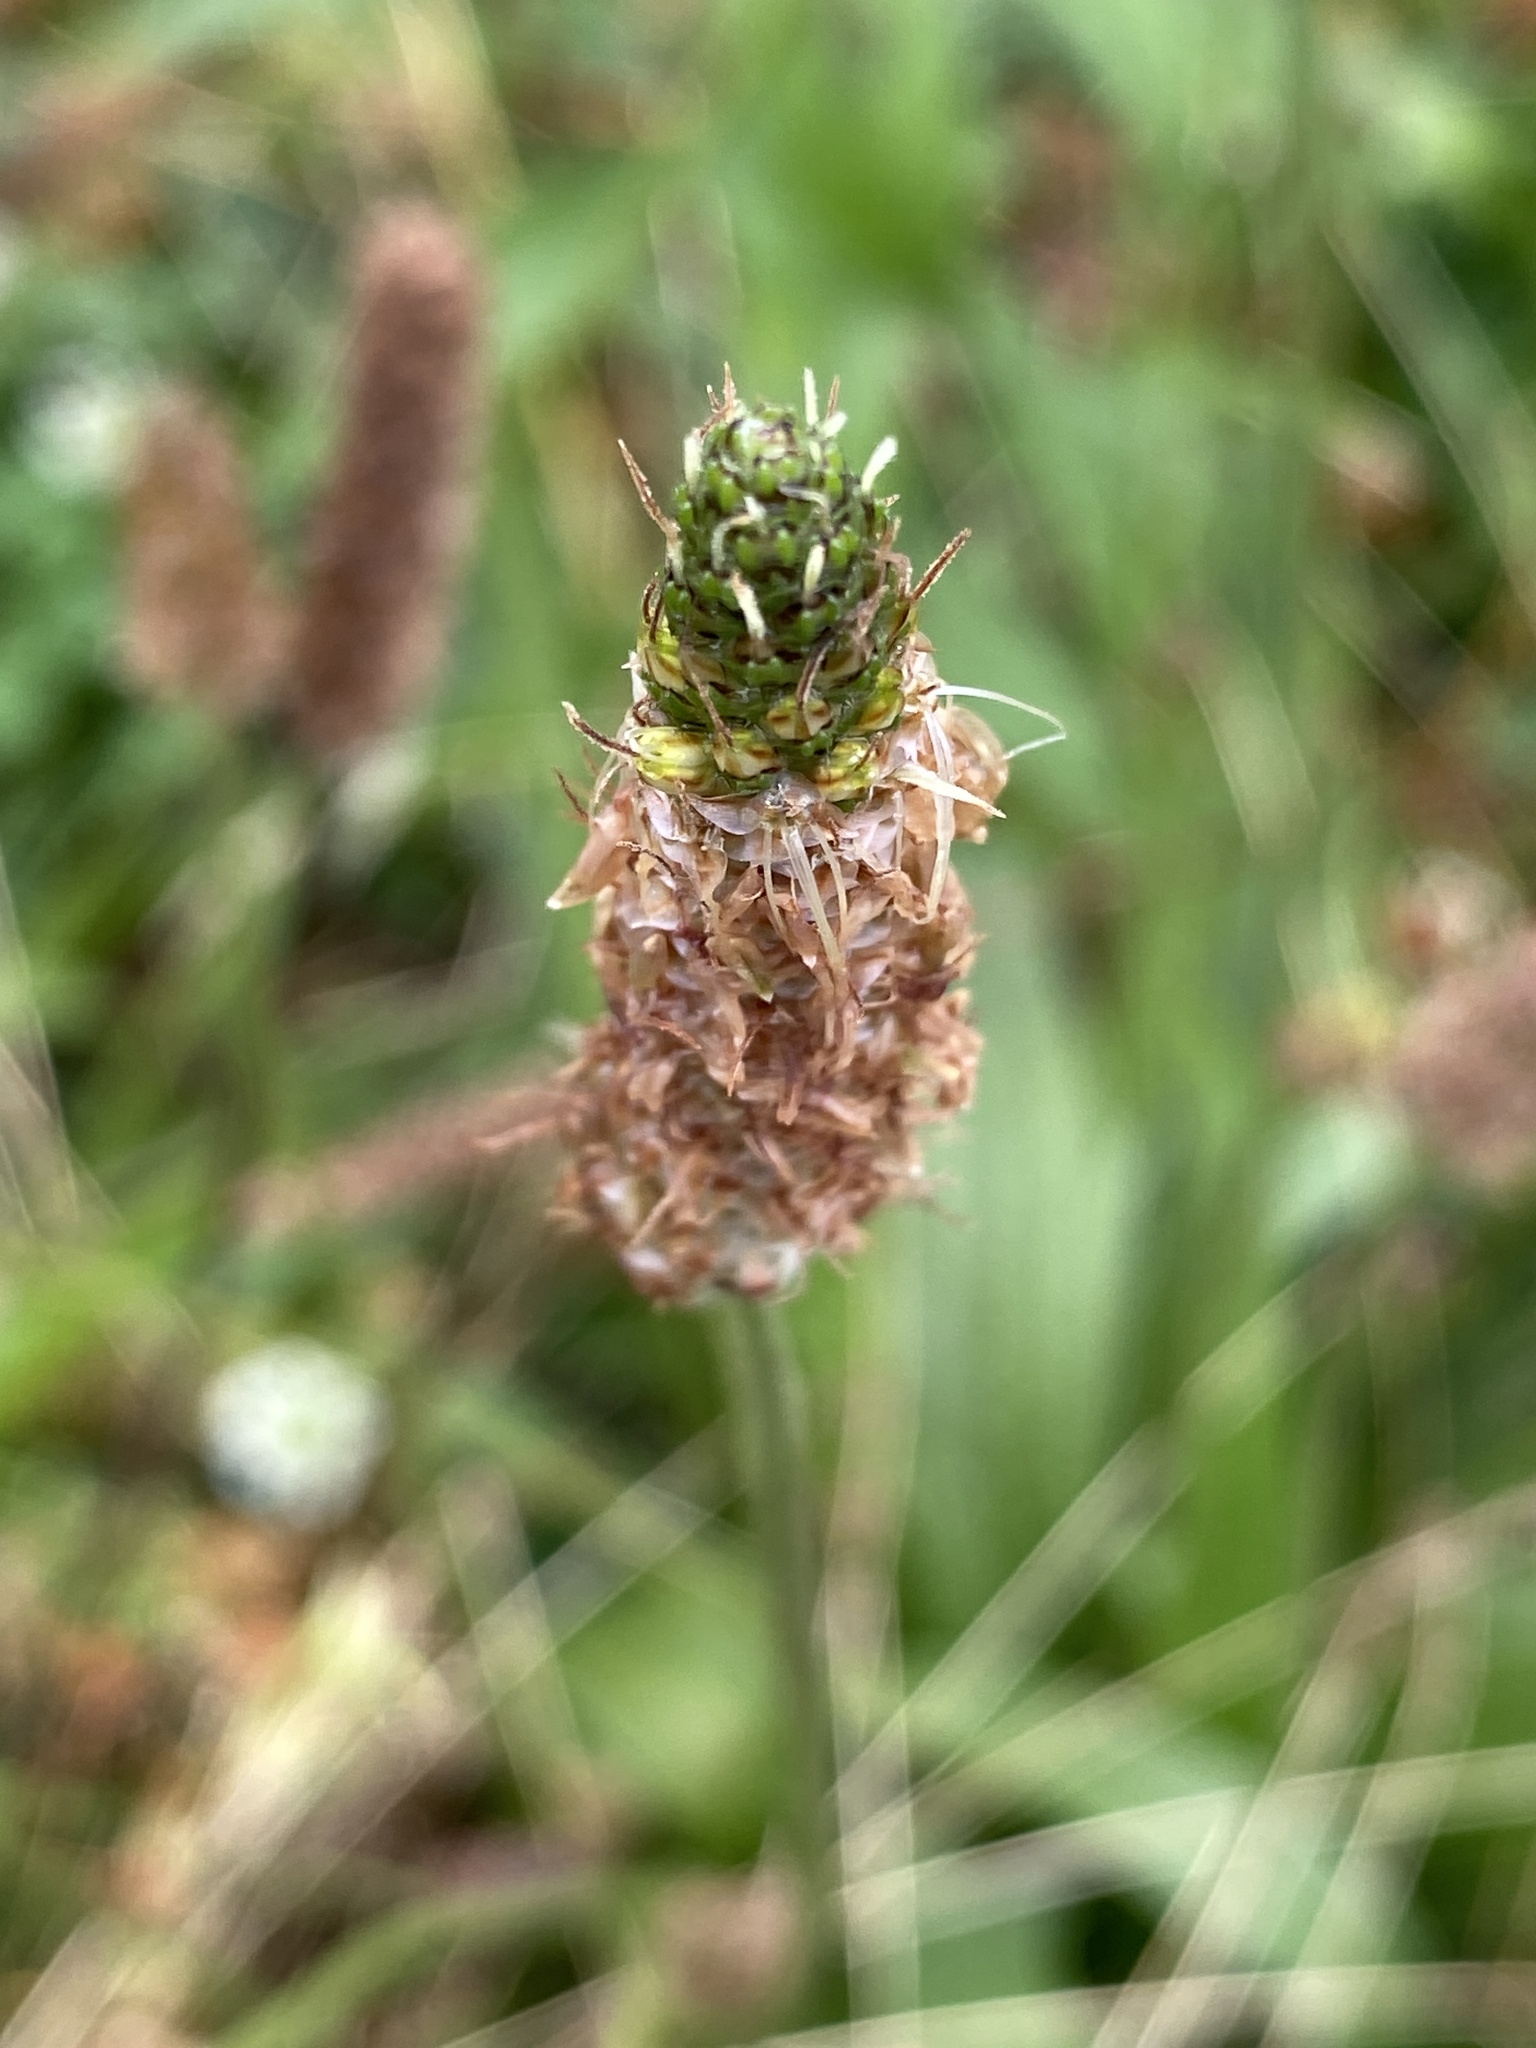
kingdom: Plantae
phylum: Tracheophyta
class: Magnoliopsida
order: Lamiales
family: Plantaginaceae
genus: Plantago
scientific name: Plantago lanceolata
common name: Ribwort plantain
